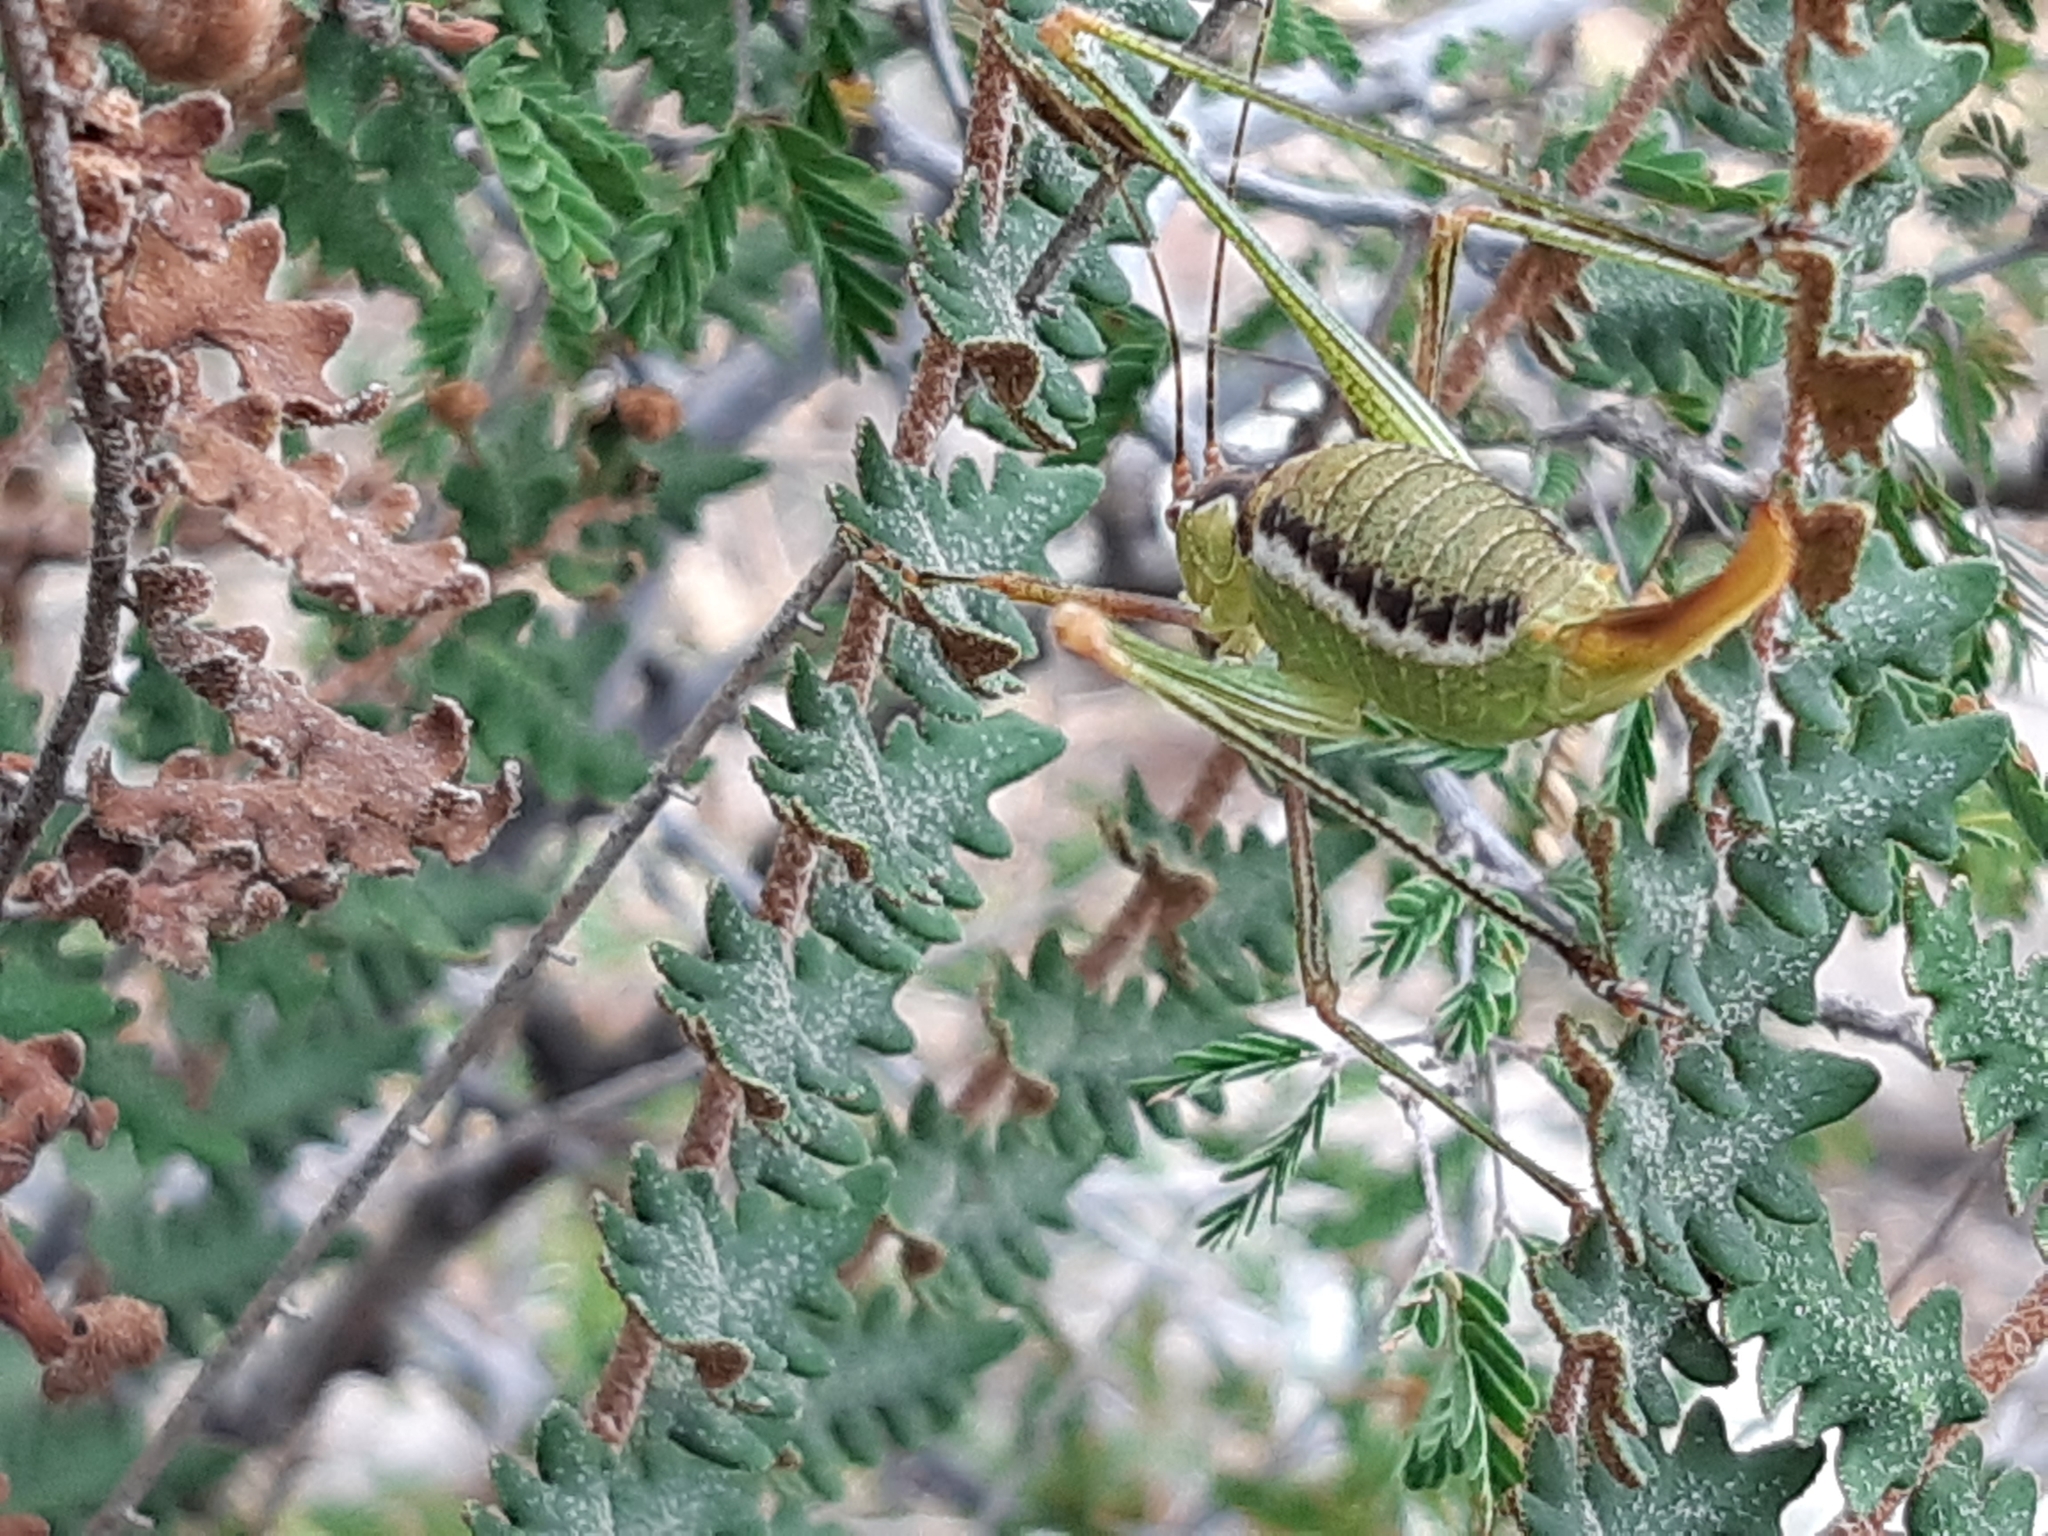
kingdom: Animalia
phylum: Arthropoda
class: Insecta
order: Orthoptera
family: Tettigoniidae
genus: Obolopteryx
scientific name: Obolopteryx brevihastata
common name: Common short-winged katydid
